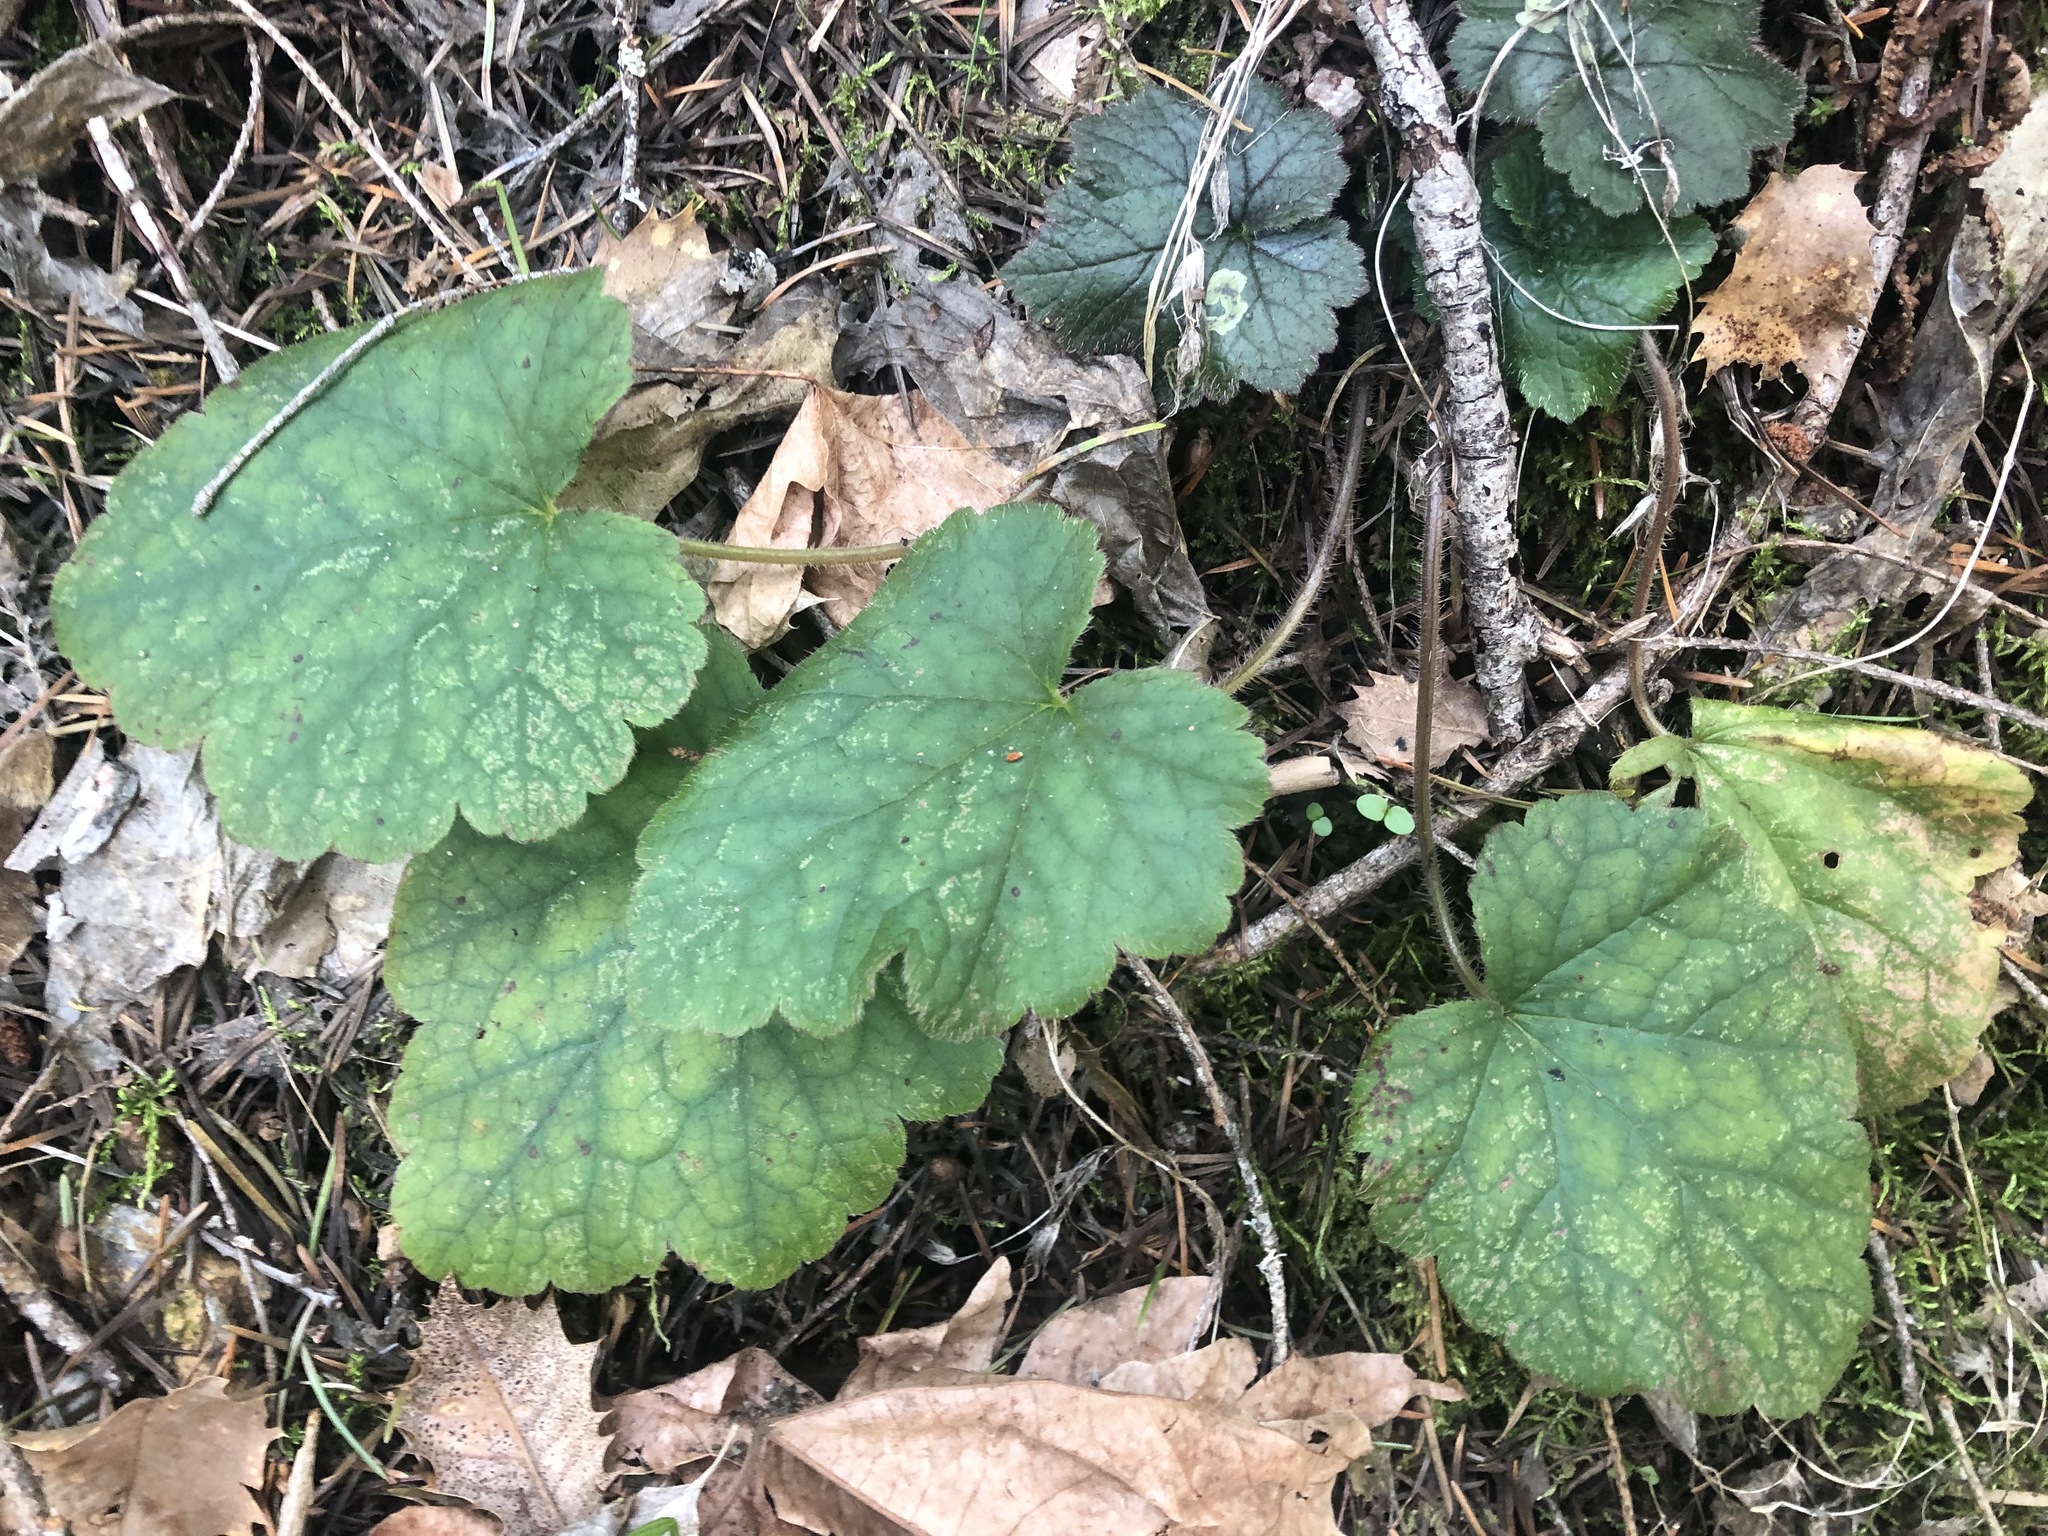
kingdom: Plantae
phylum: Tracheophyta
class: Magnoliopsida
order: Saxifragales
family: Saxifragaceae
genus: Heuchera
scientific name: Heuchera micrantha
